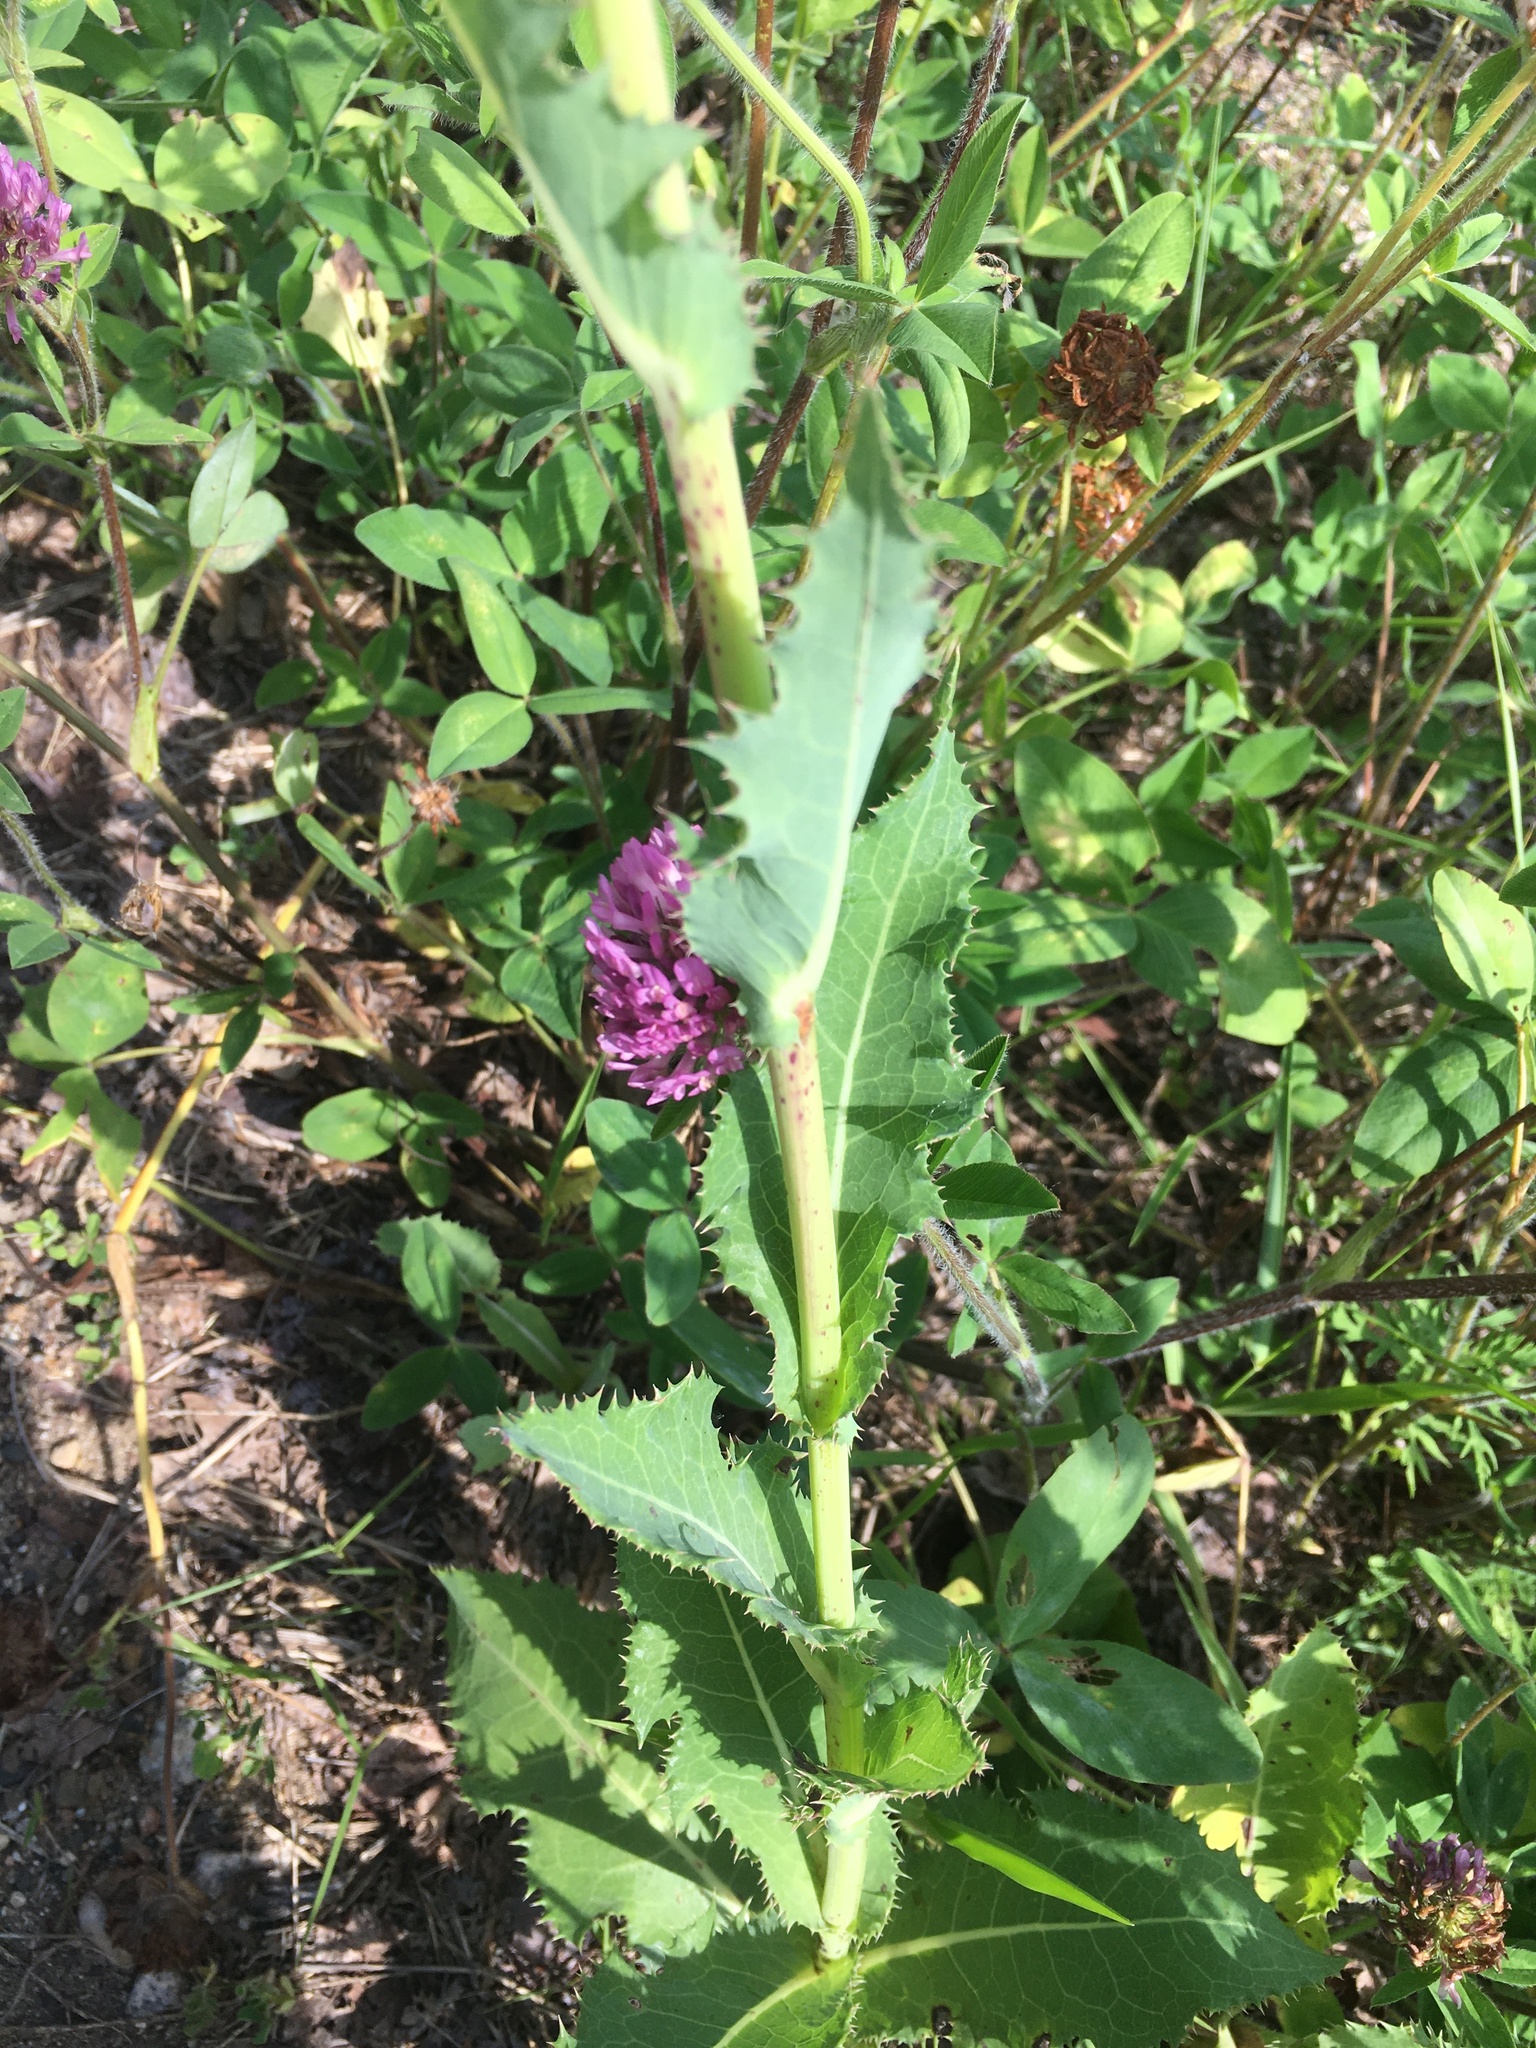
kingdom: Plantae
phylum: Tracheophyta
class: Magnoliopsida
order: Asterales
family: Asteraceae
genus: Sonchus
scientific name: Sonchus arvensis
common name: Perennial sow-thistle
